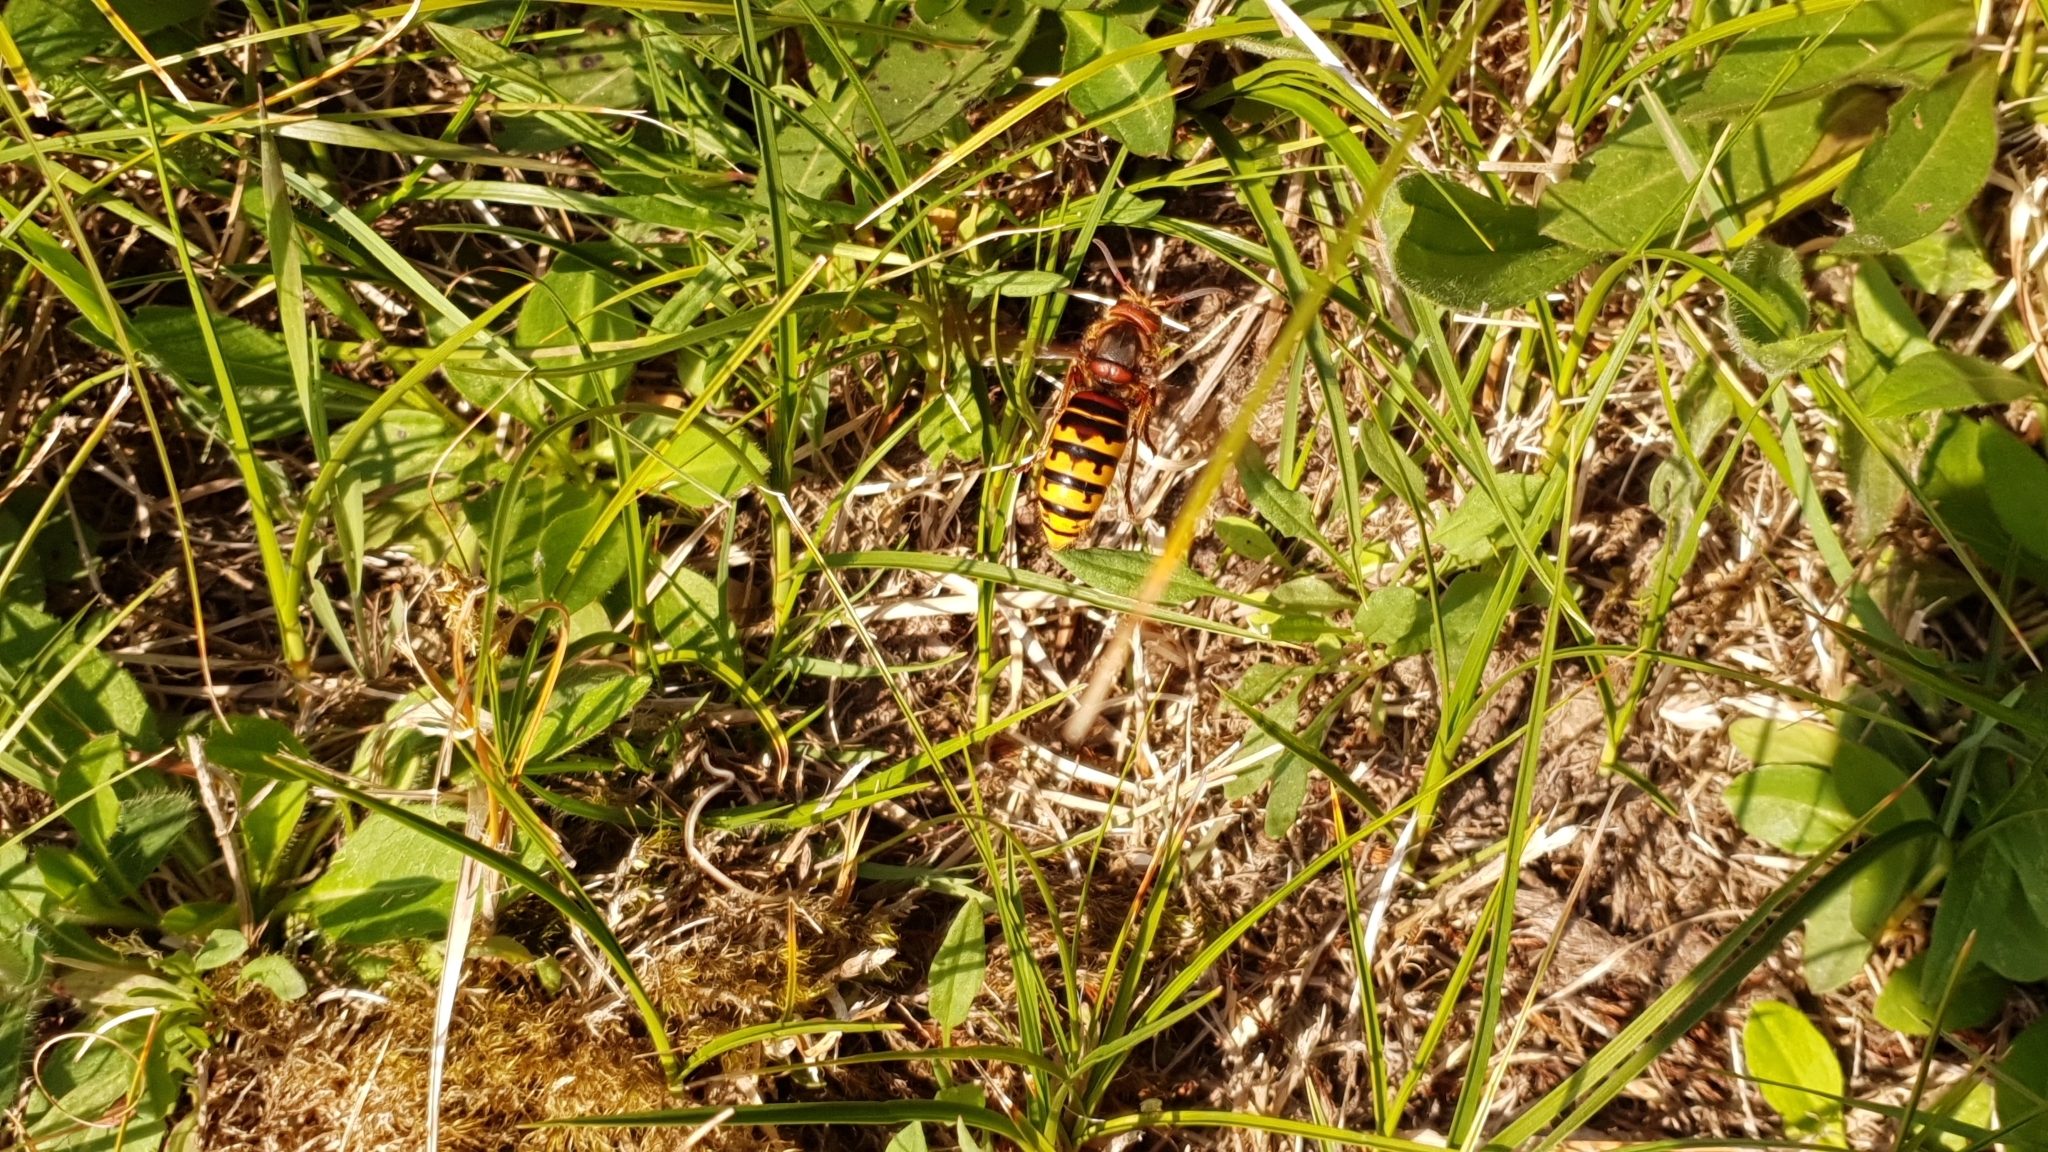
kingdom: Animalia
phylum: Arthropoda
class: Insecta
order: Hymenoptera
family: Vespidae
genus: Vespa
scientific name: Vespa crabro
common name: Hornet
